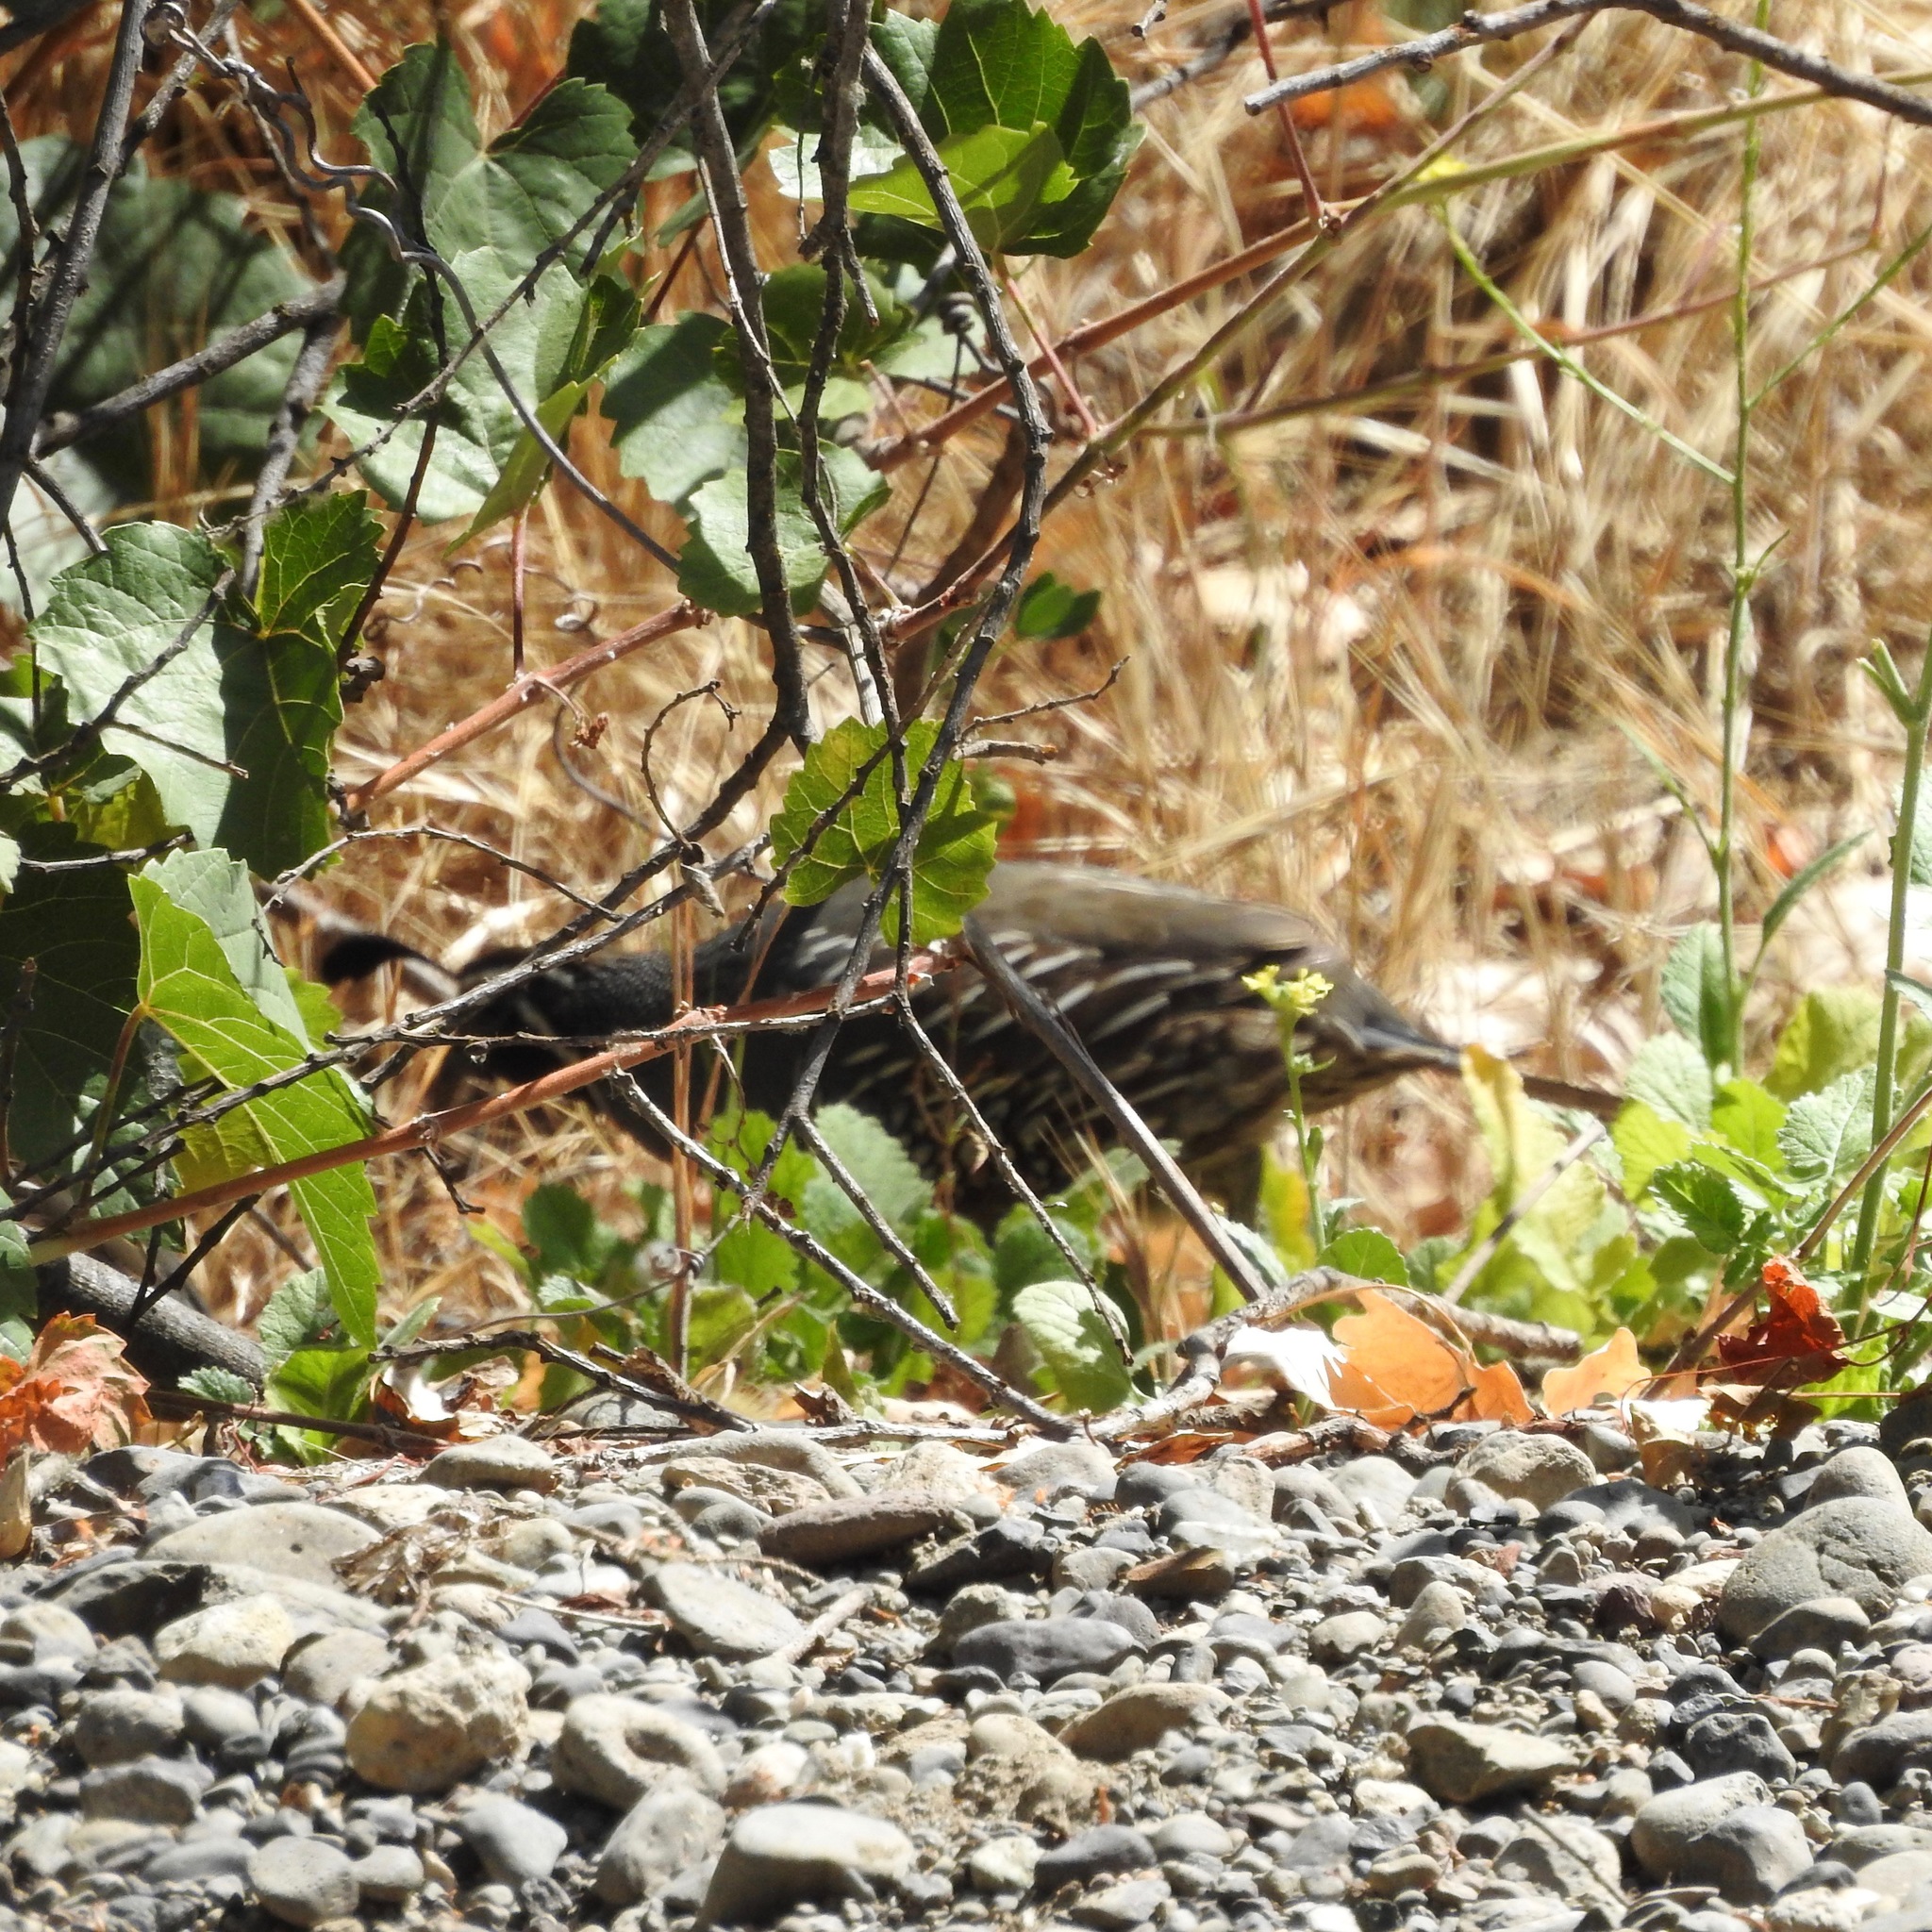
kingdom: Animalia
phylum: Chordata
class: Aves
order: Galliformes
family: Odontophoridae
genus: Callipepla
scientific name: Callipepla californica
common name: California quail
